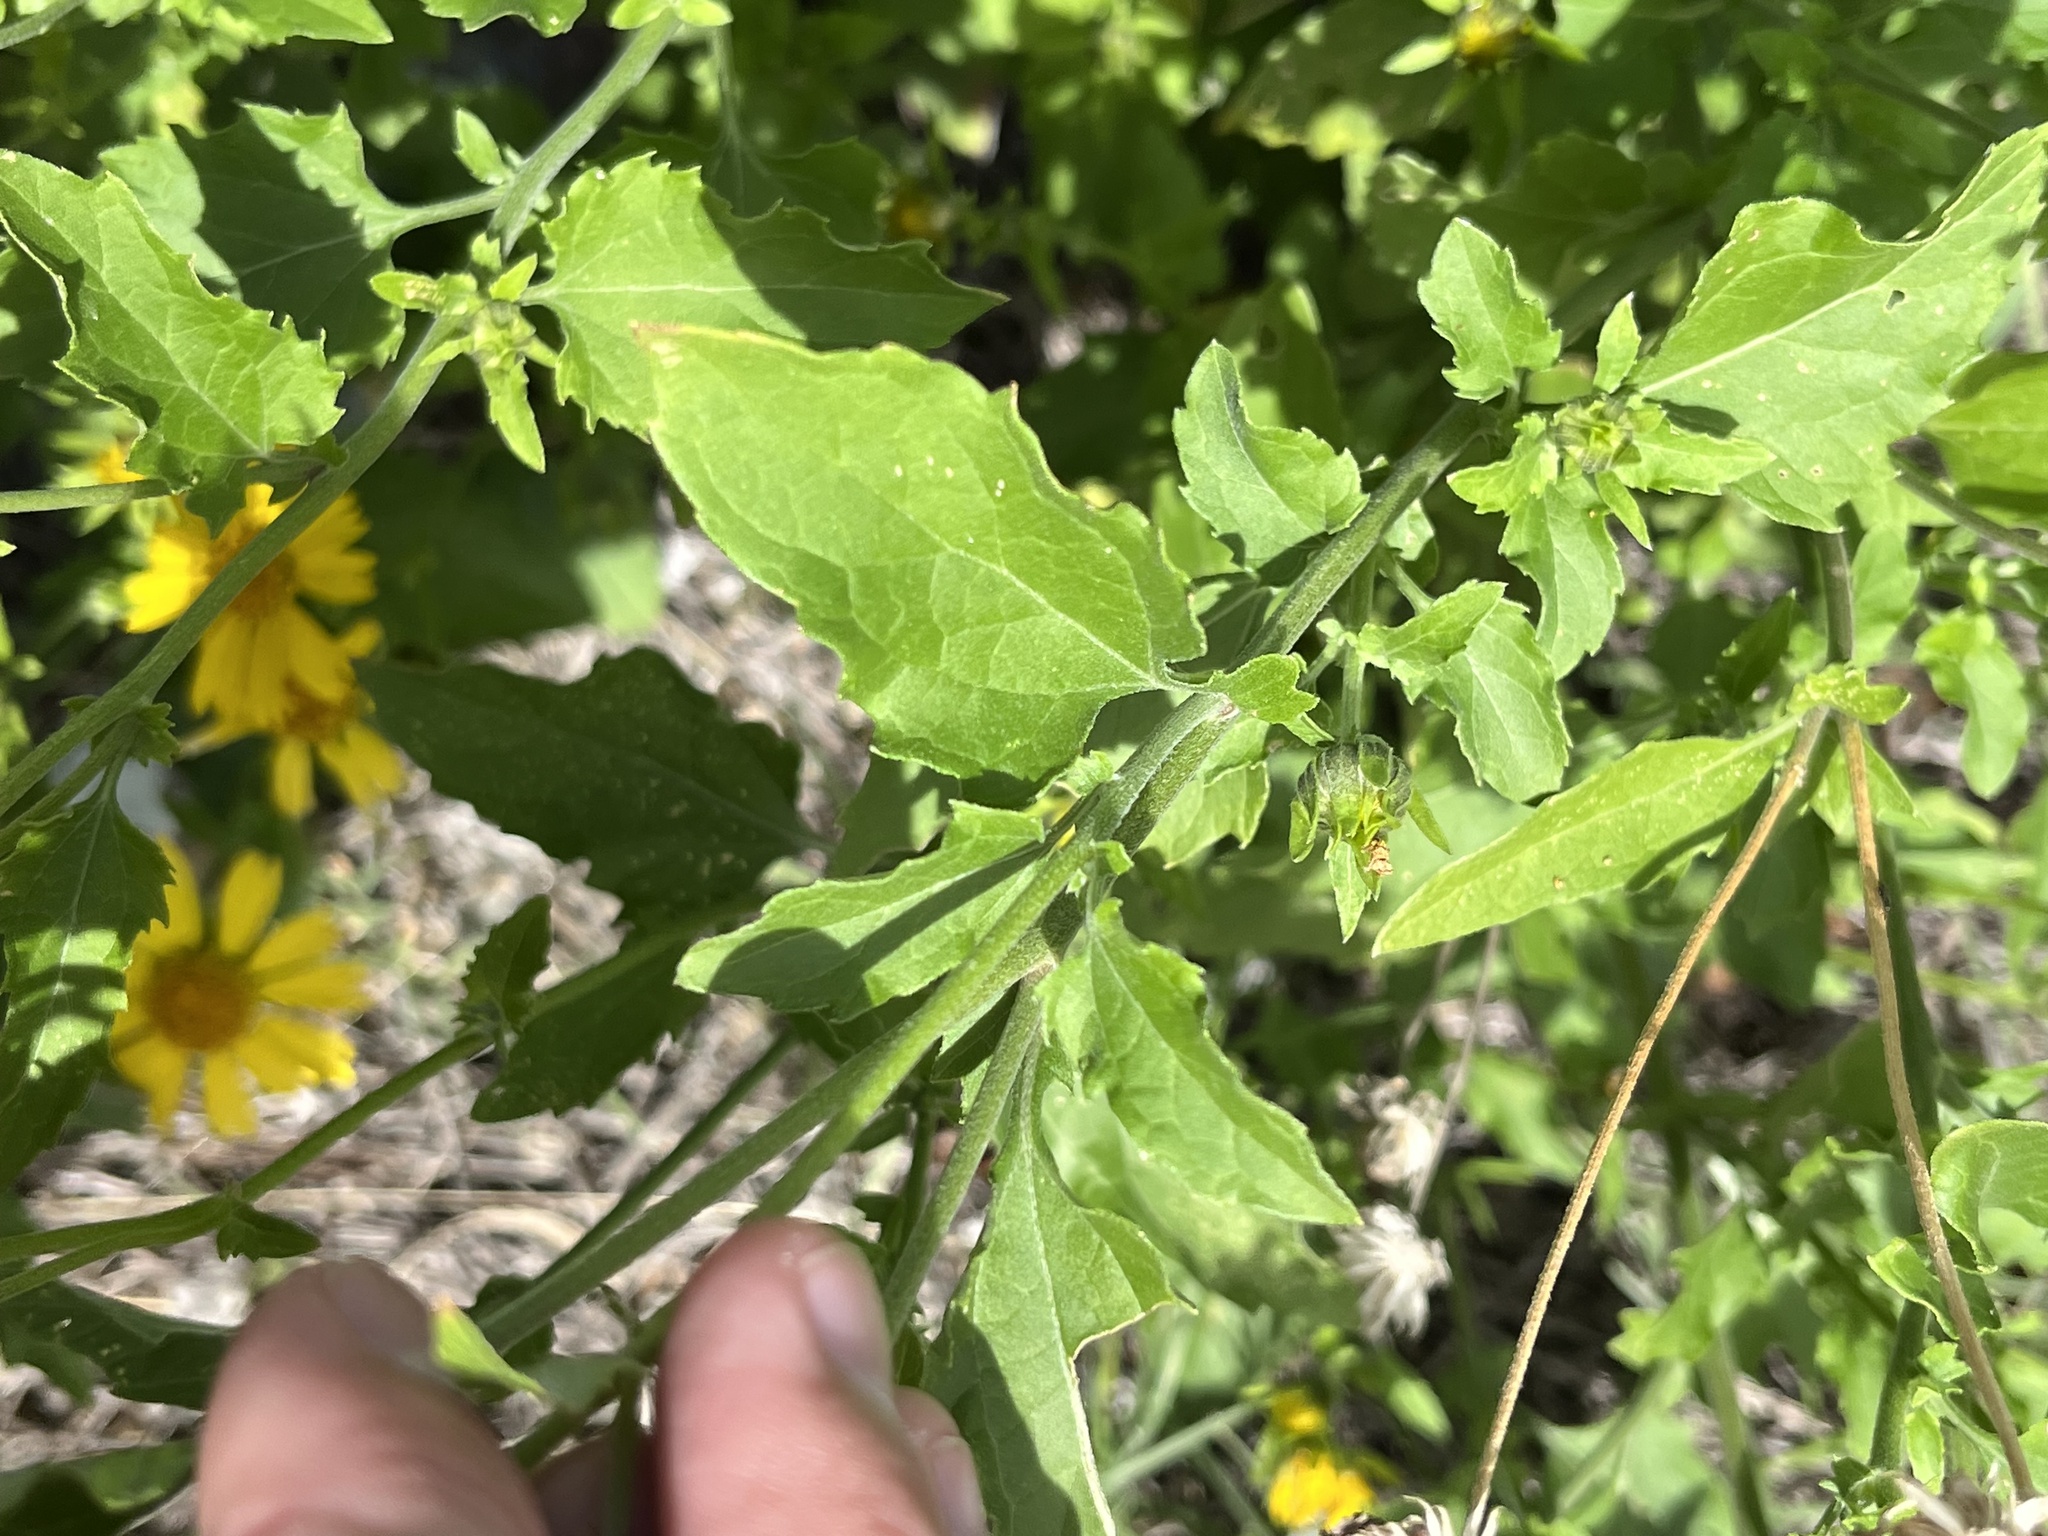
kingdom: Plantae
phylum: Tracheophyta
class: Magnoliopsida
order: Asterales
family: Asteraceae
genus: Verbesina
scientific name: Verbesina encelioides
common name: Golden crownbeard
